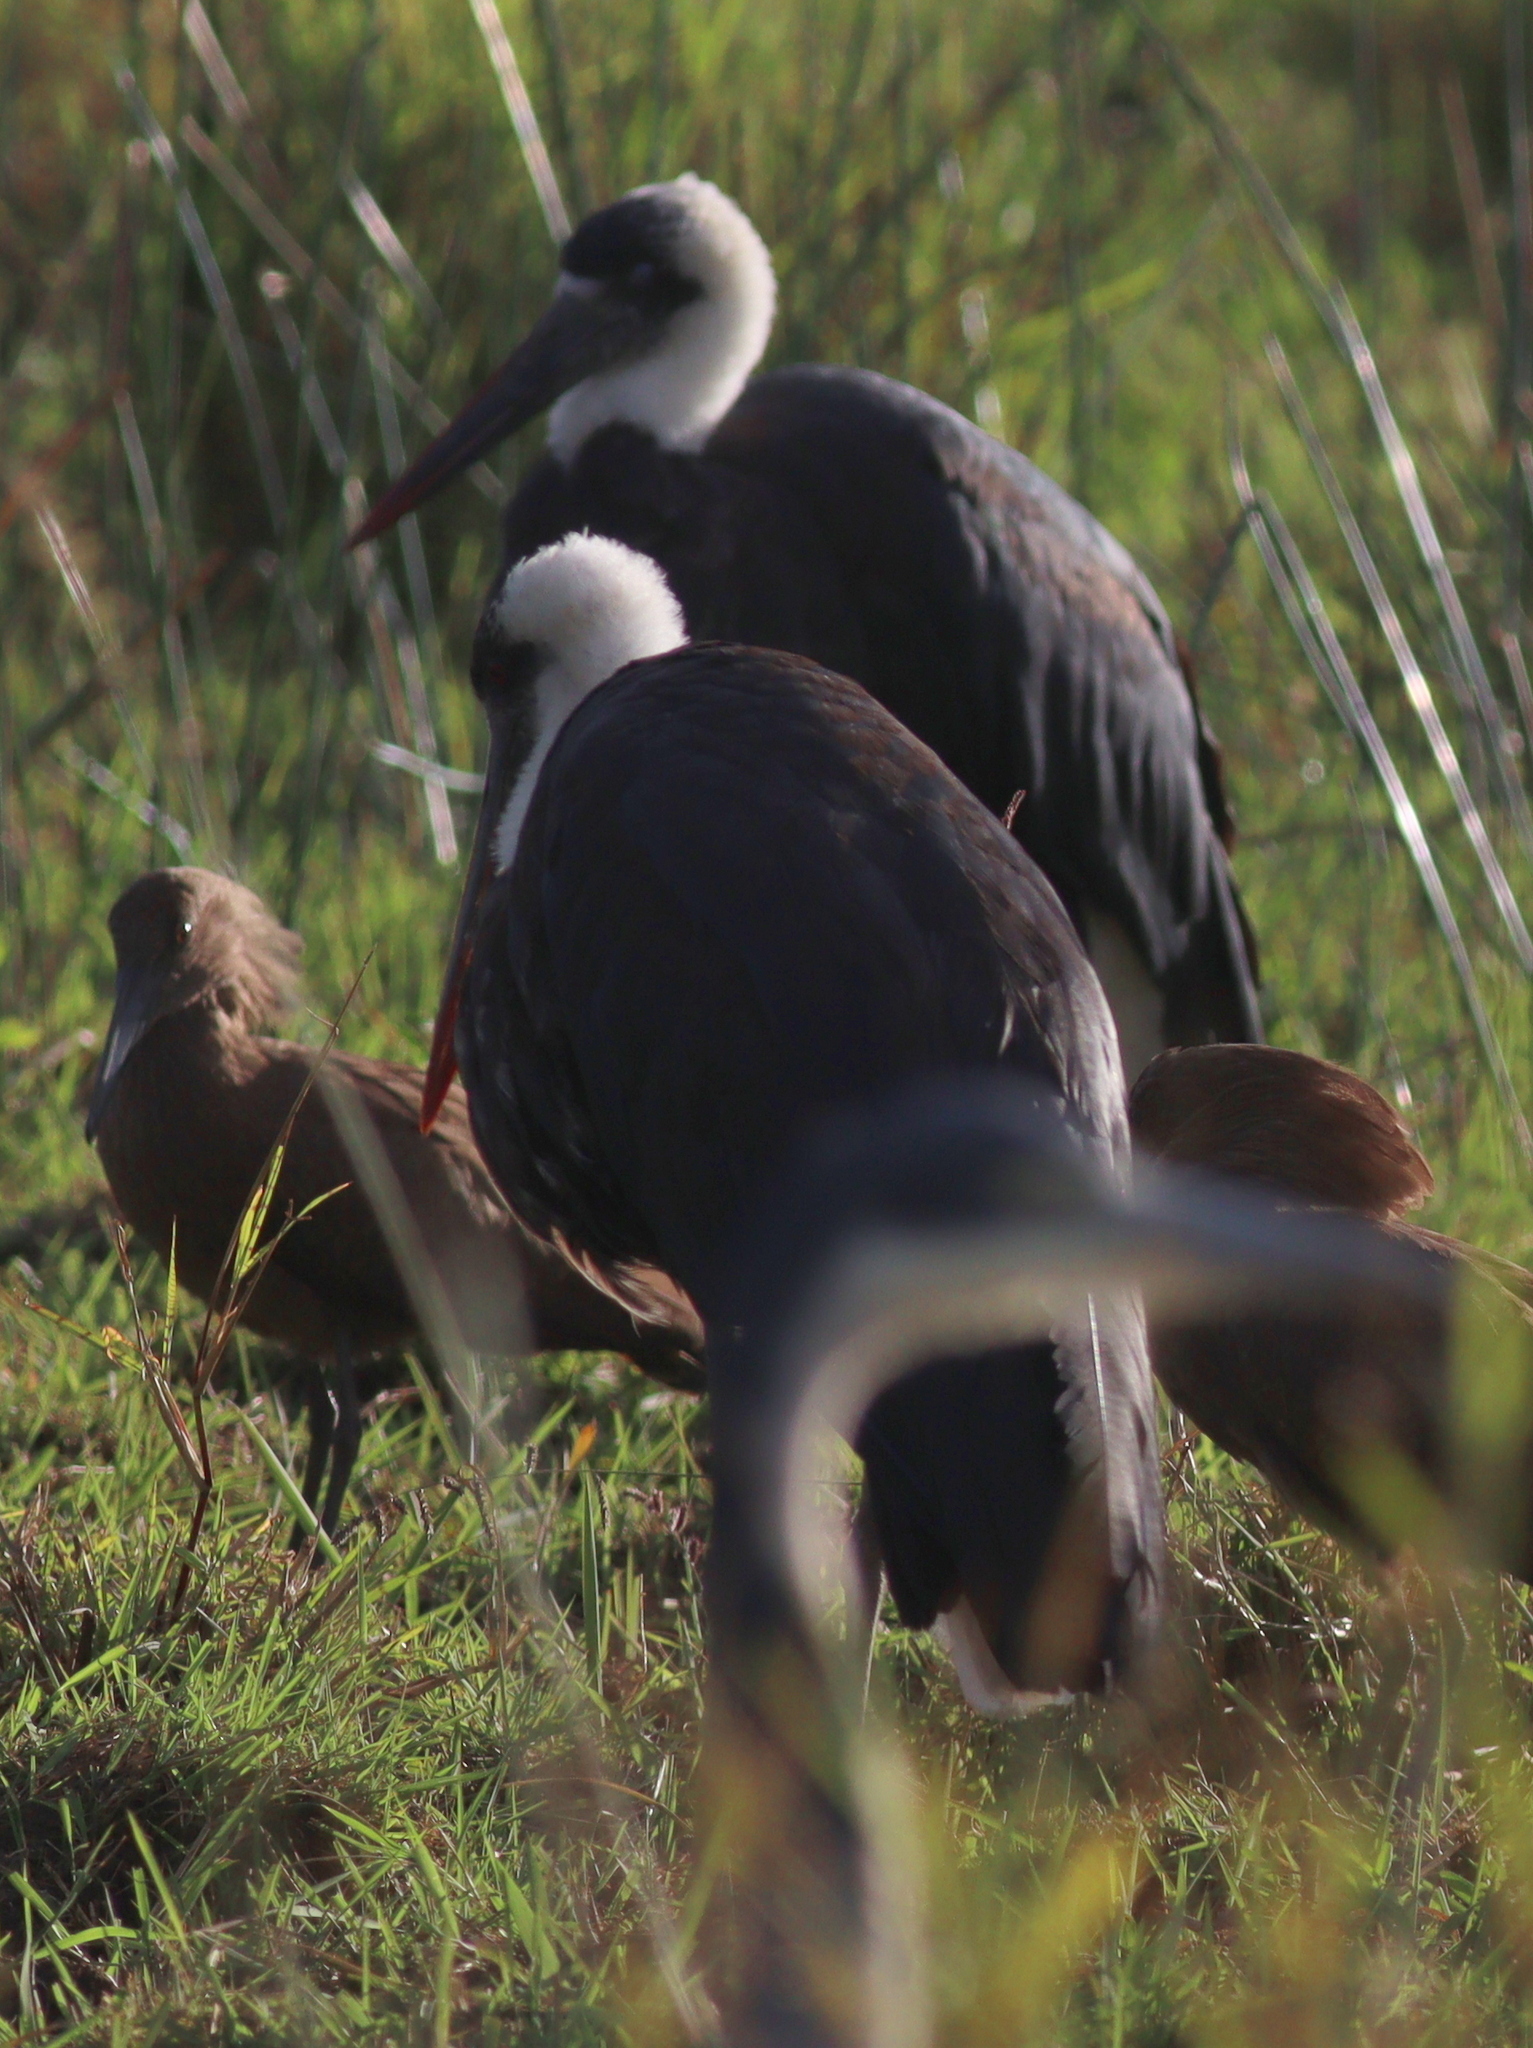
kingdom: Animalia
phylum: Chordata
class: Aves
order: Ciconiiformes
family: Ciconiidae
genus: Ciconia
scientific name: Ciconia microscelis
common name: African woollyneck
